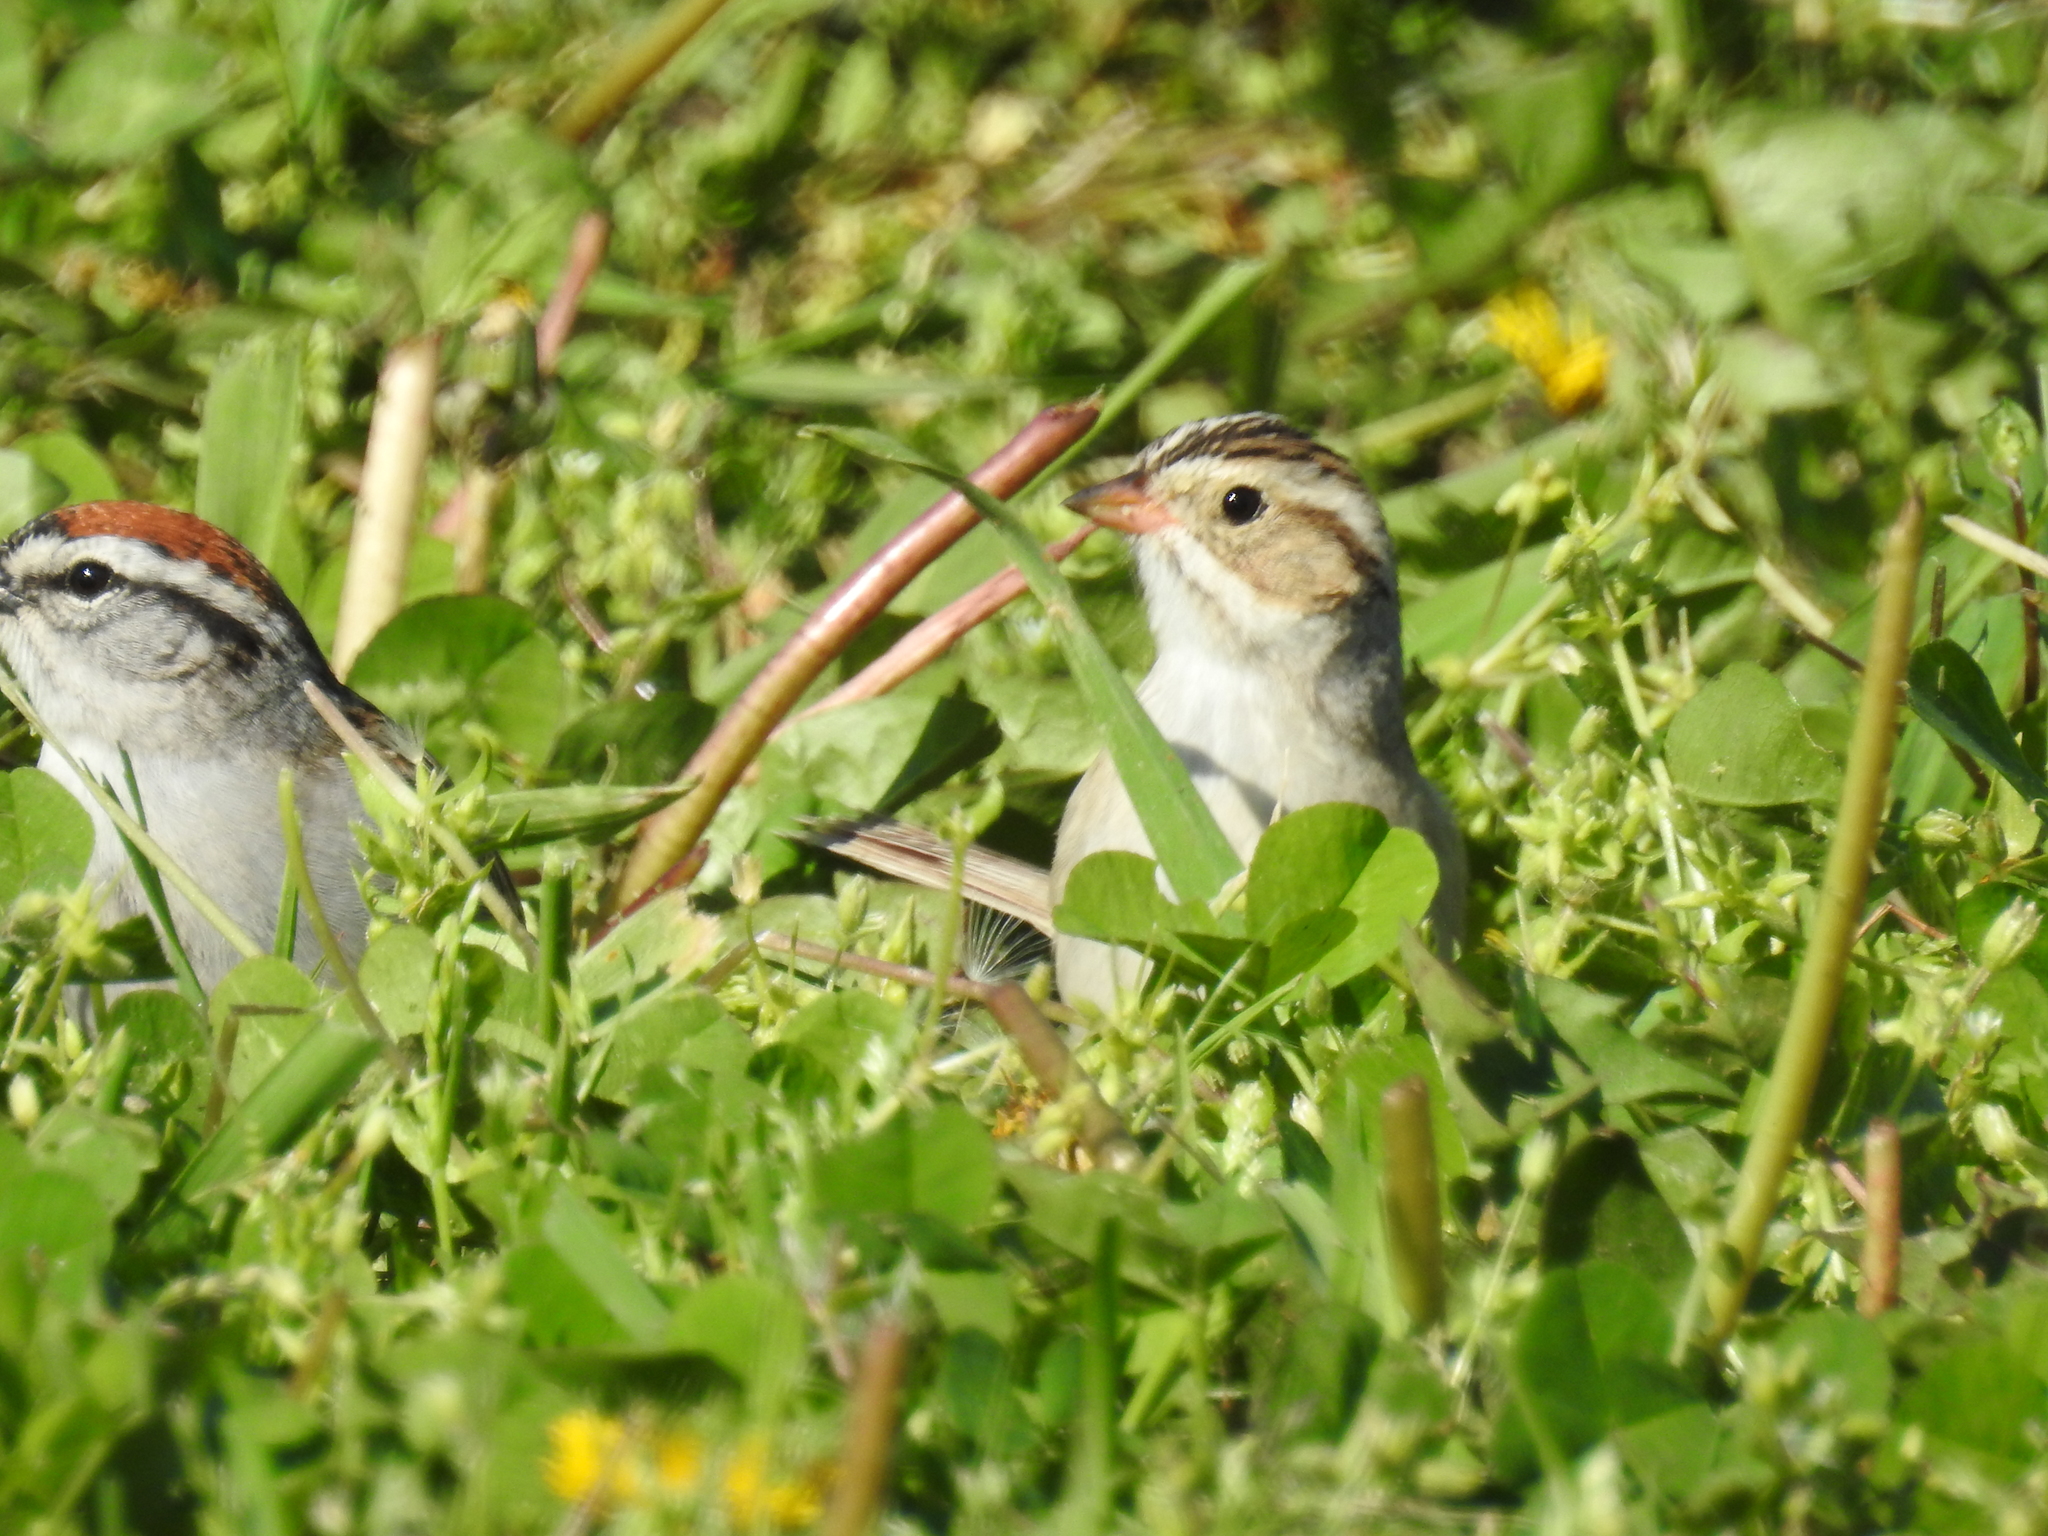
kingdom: Animalia
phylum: Chordata
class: Aves
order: Passeriformes
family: Passerellidae
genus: Spizella
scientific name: Spizella passerina
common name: Chipping sparrow
